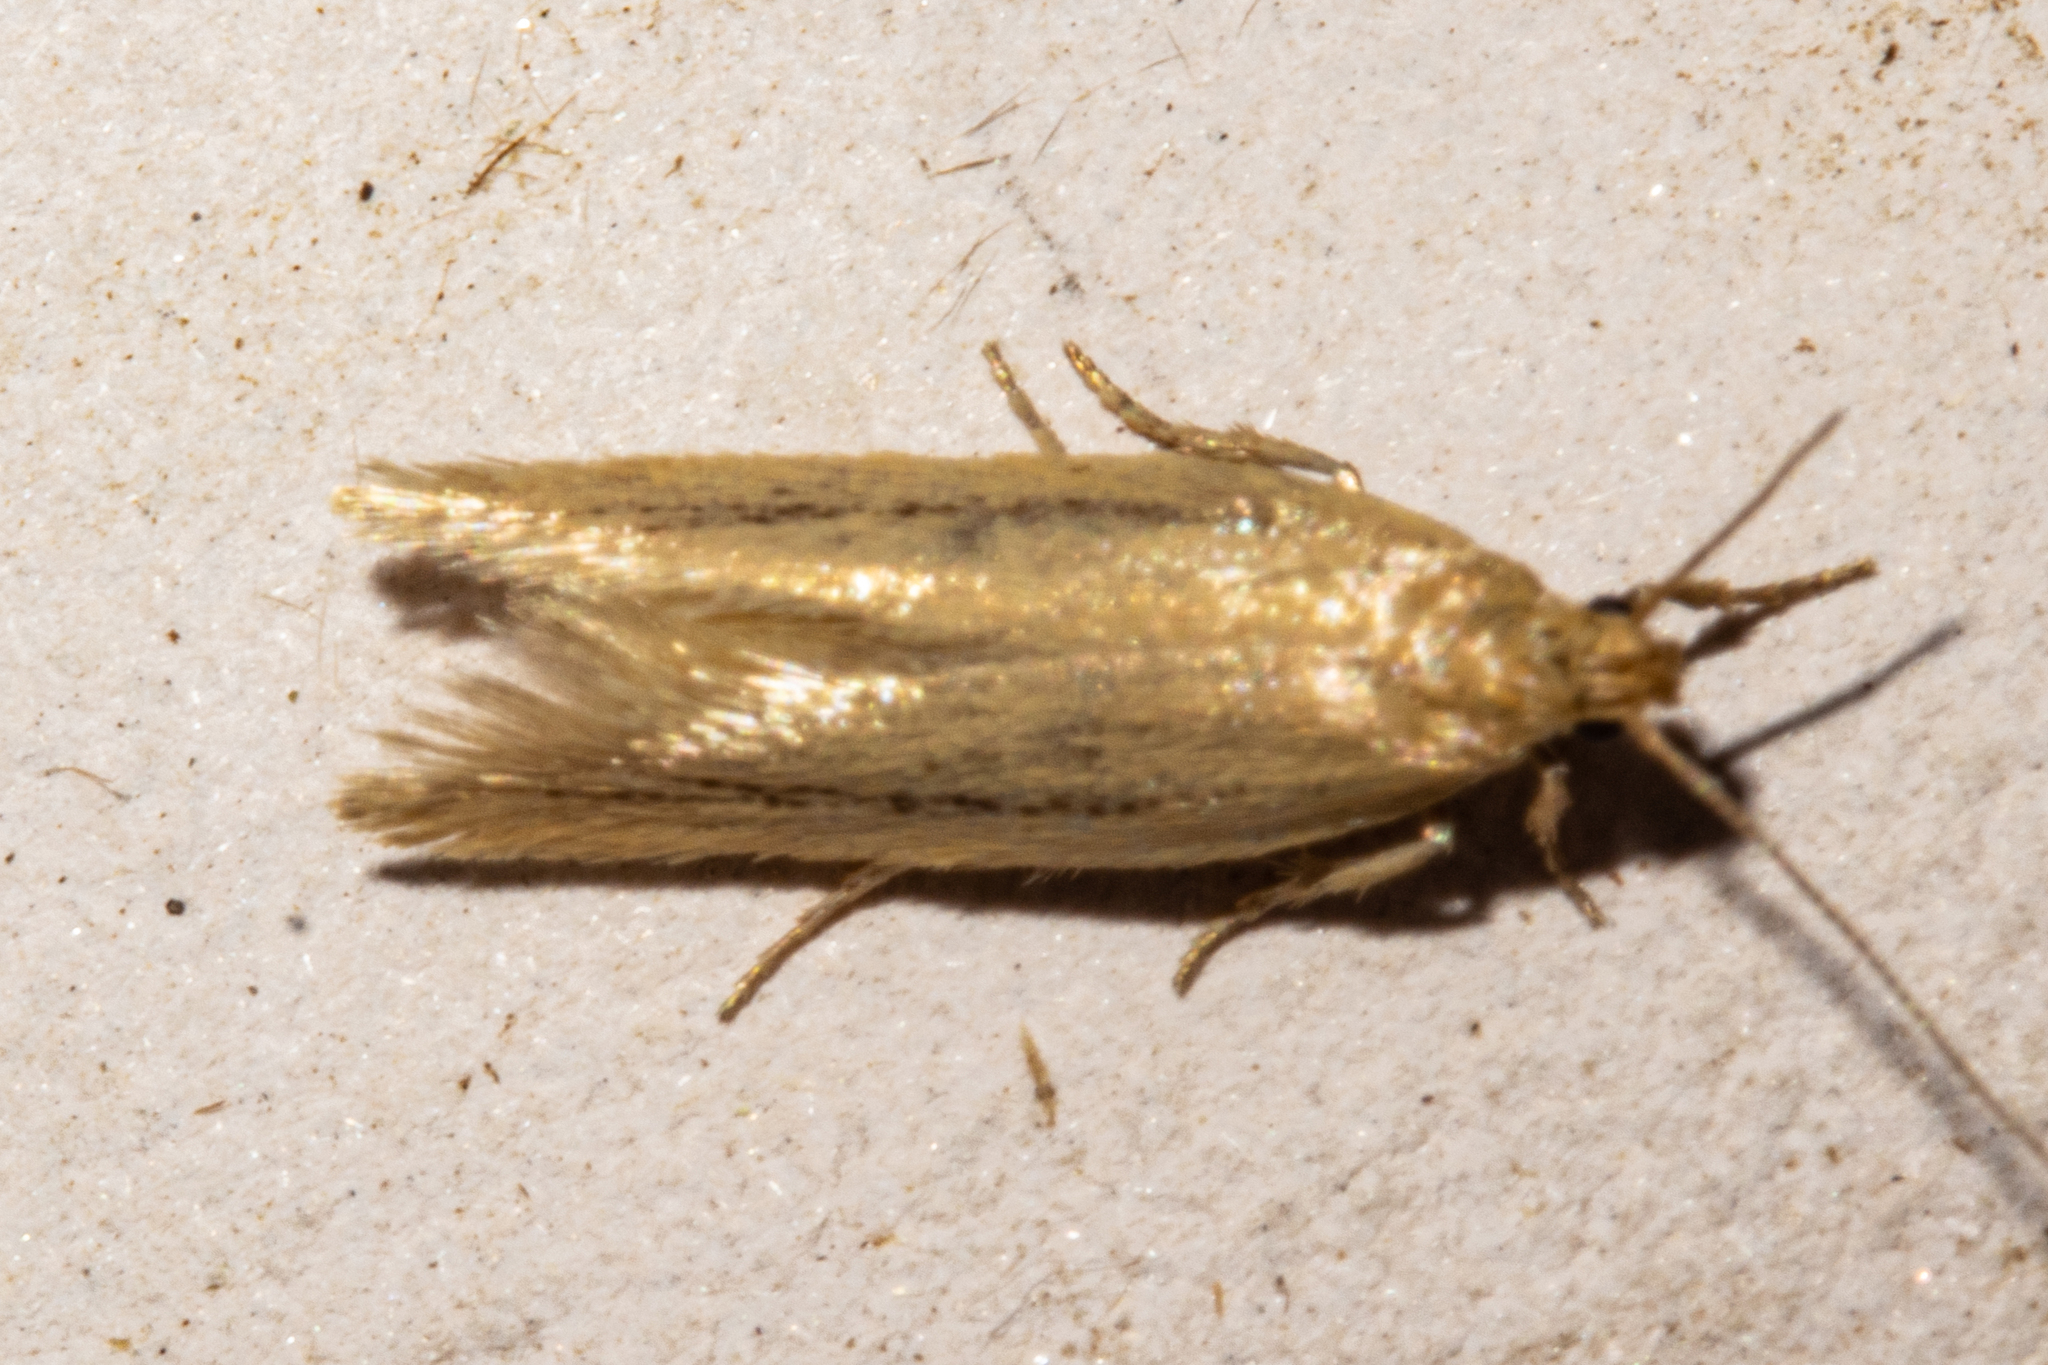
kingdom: Animalia
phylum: Arthropoda
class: Insecta
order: Lepidoptera
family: Oecophoridae
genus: Tingena
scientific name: Tingena maranta
